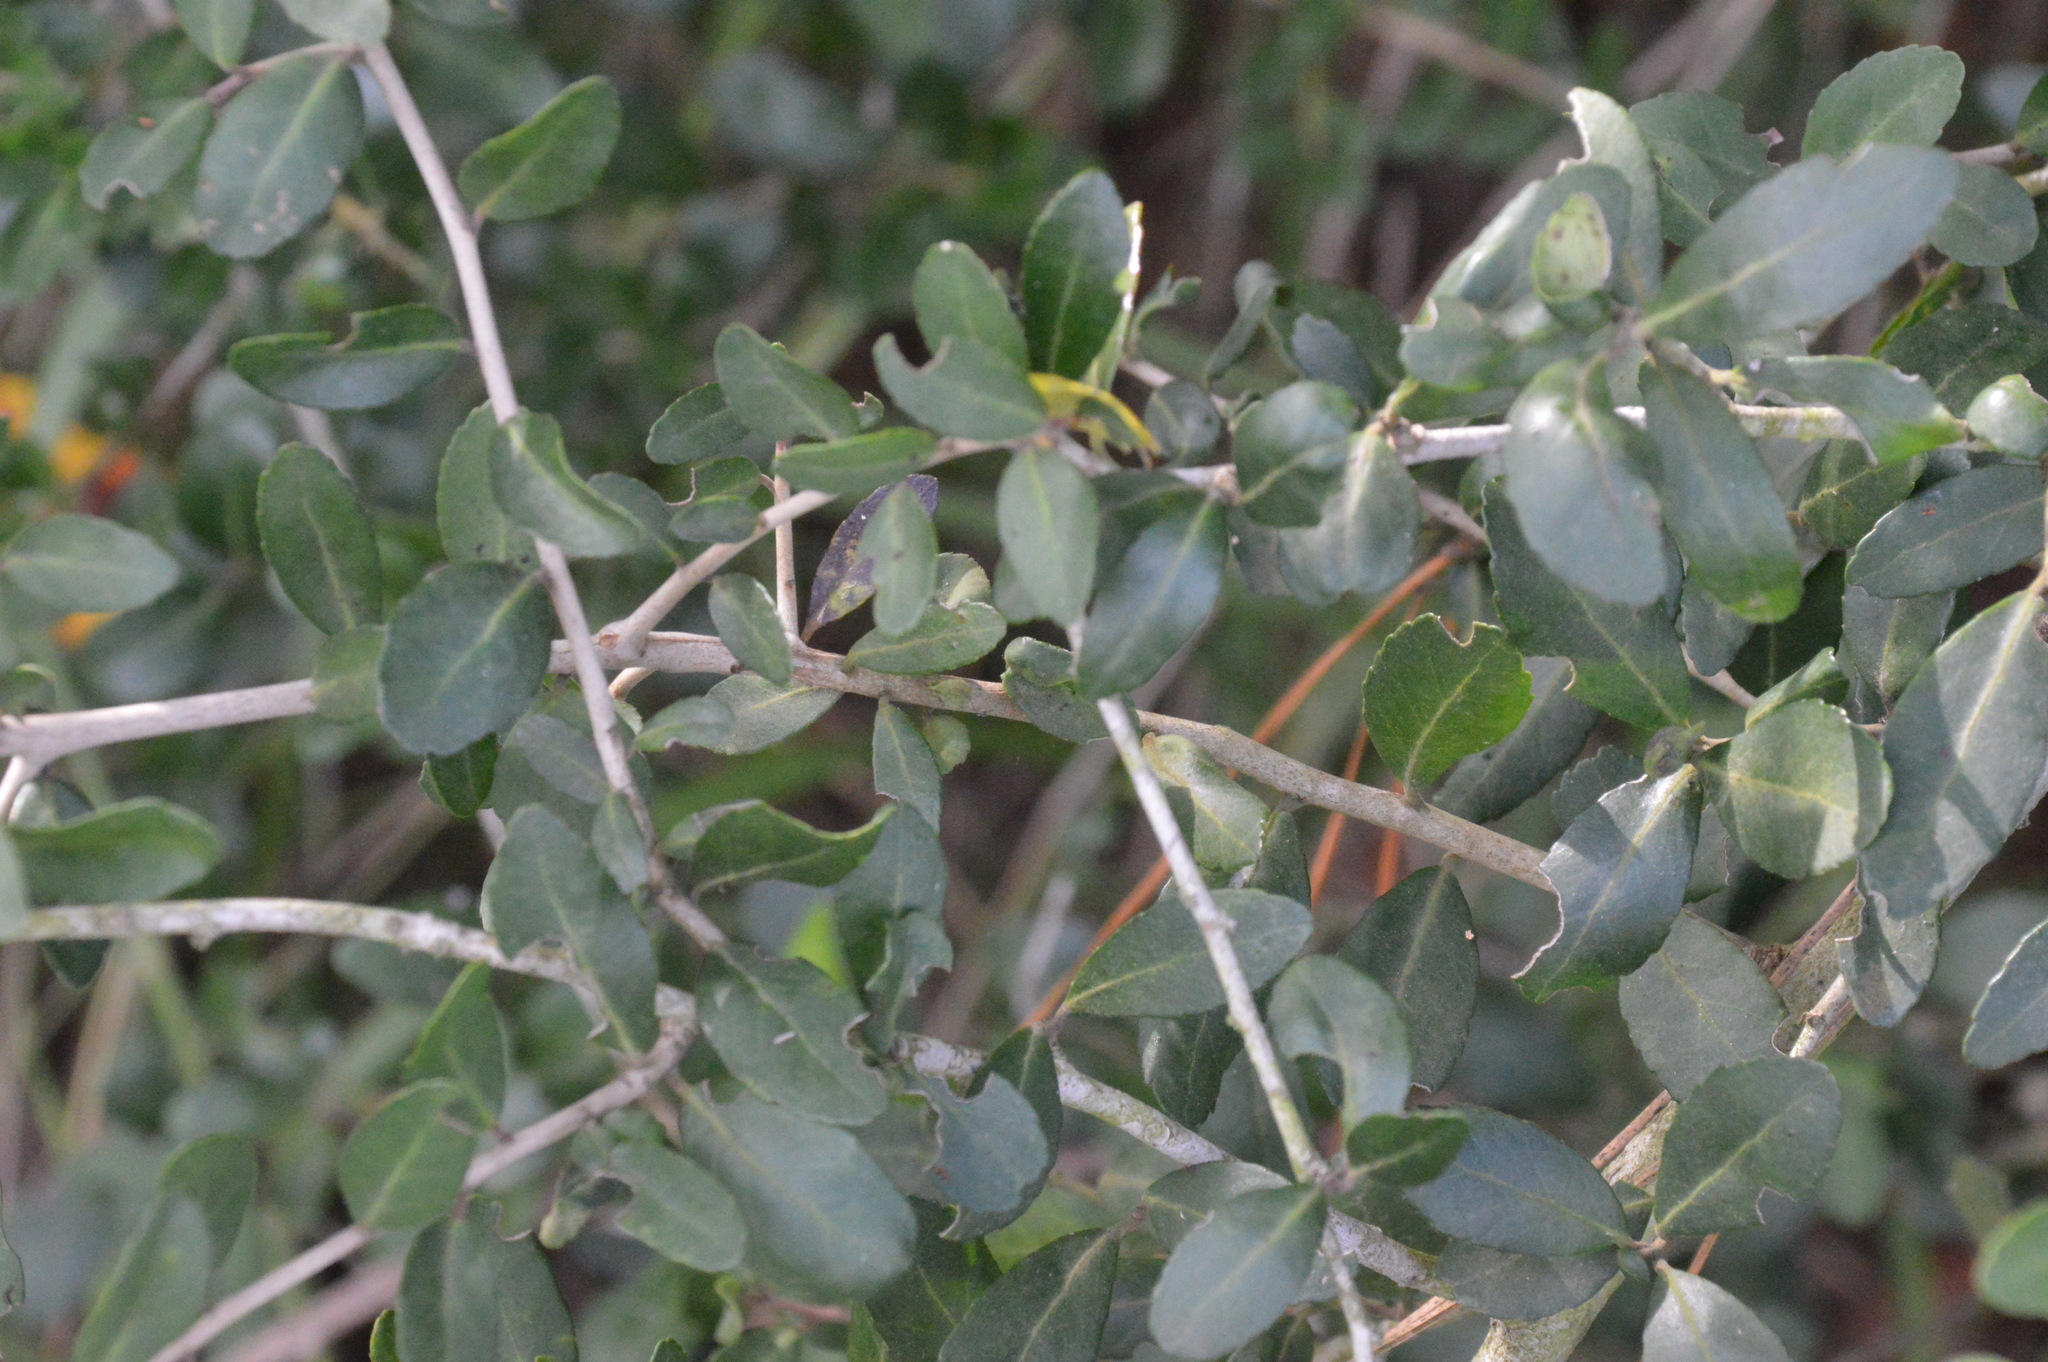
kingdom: Plantae
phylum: Tracheophyta
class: Magnoliopsida
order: Aquifoliales
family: Aquifoliaceae
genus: Ilex
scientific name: Ilex vomitoria
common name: Yaupon holly
